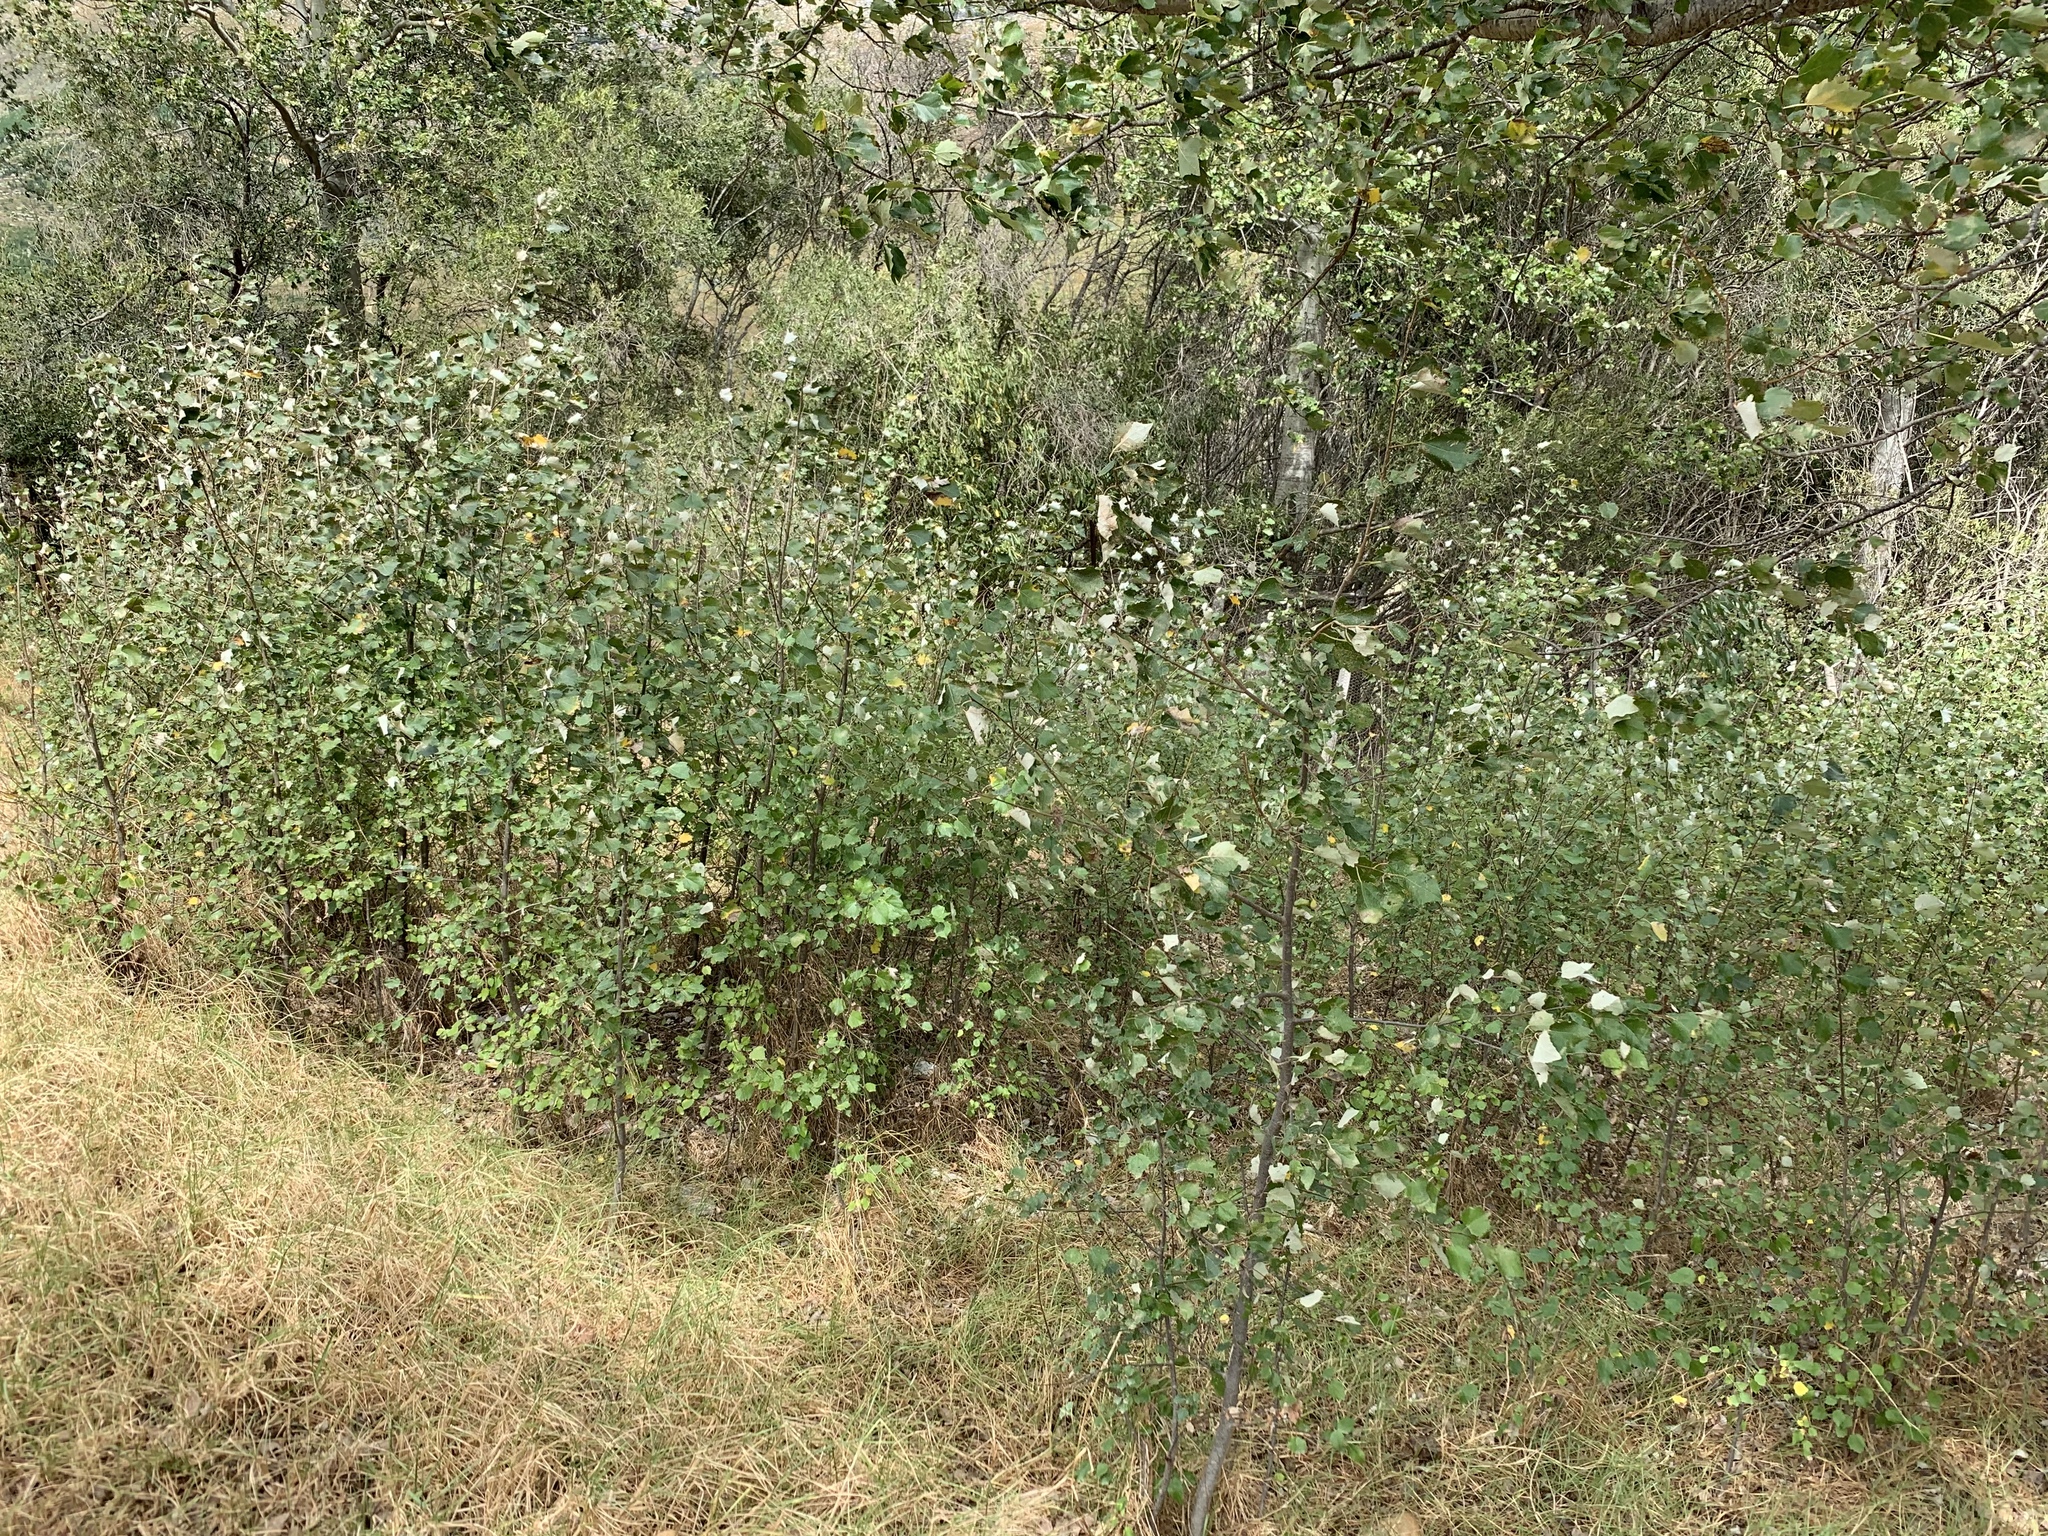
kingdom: Plantae
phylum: Tracheophyta
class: Magnoliopsida
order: Malpighiales
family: Salicaceae
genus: Populus
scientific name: Populus canescens
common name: Gray poplar
